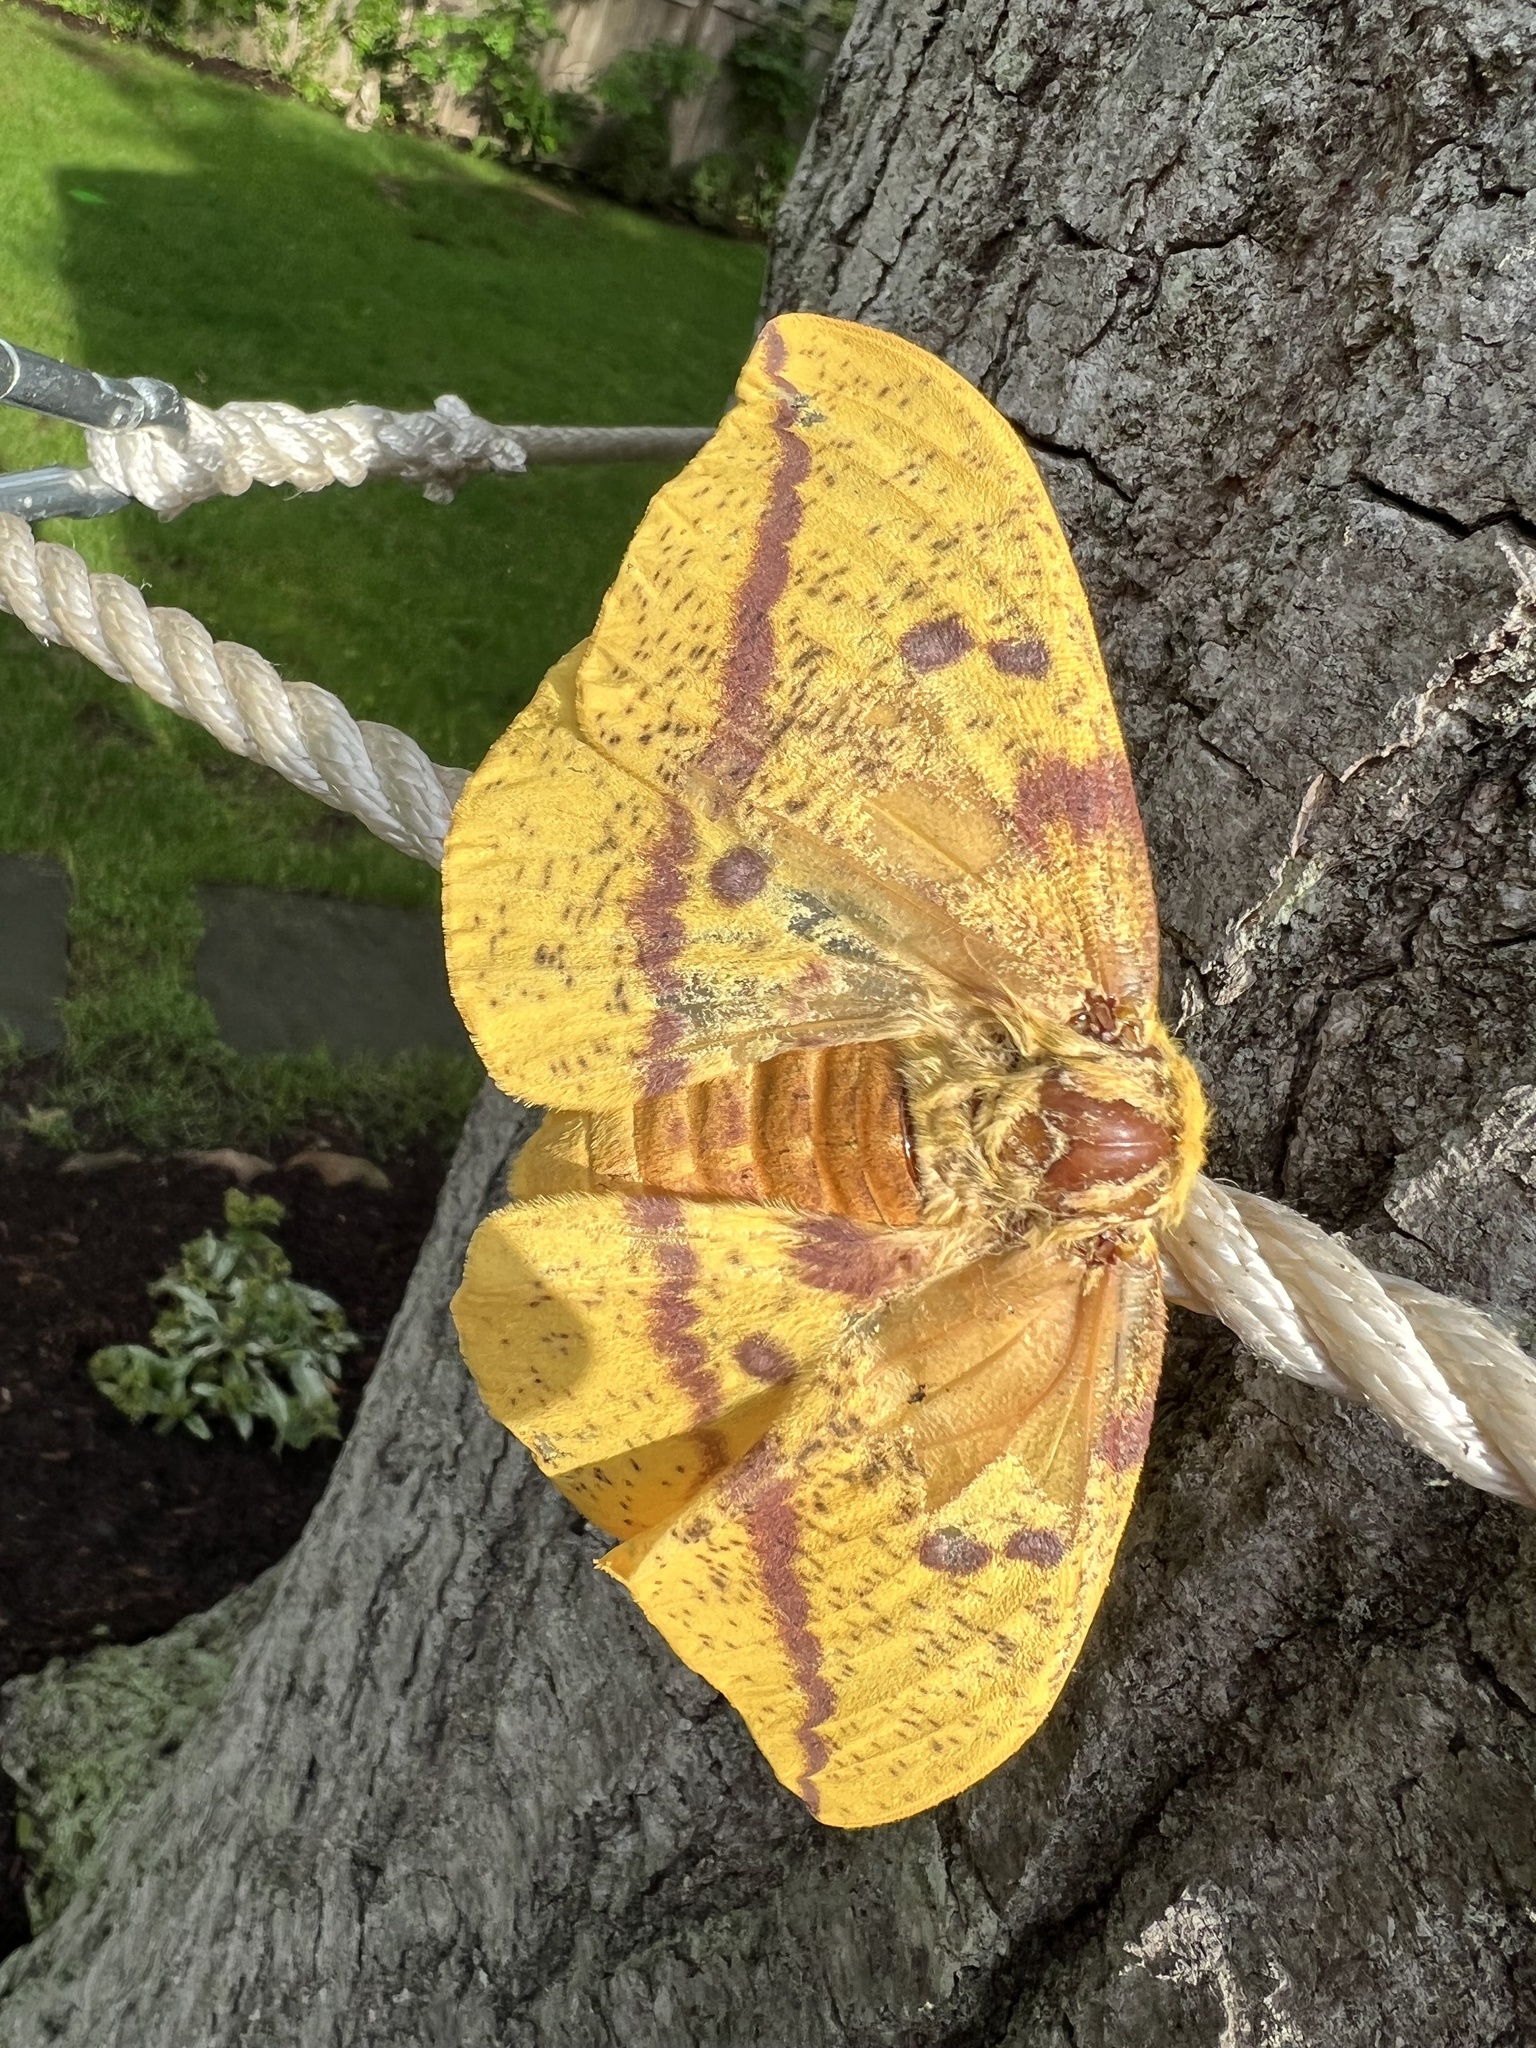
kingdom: Animalia
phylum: Arthropoda
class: Insecta
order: Lepidoptera
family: Saturniidae
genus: Eacles
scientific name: Eacles imperialis
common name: Imperial moth
